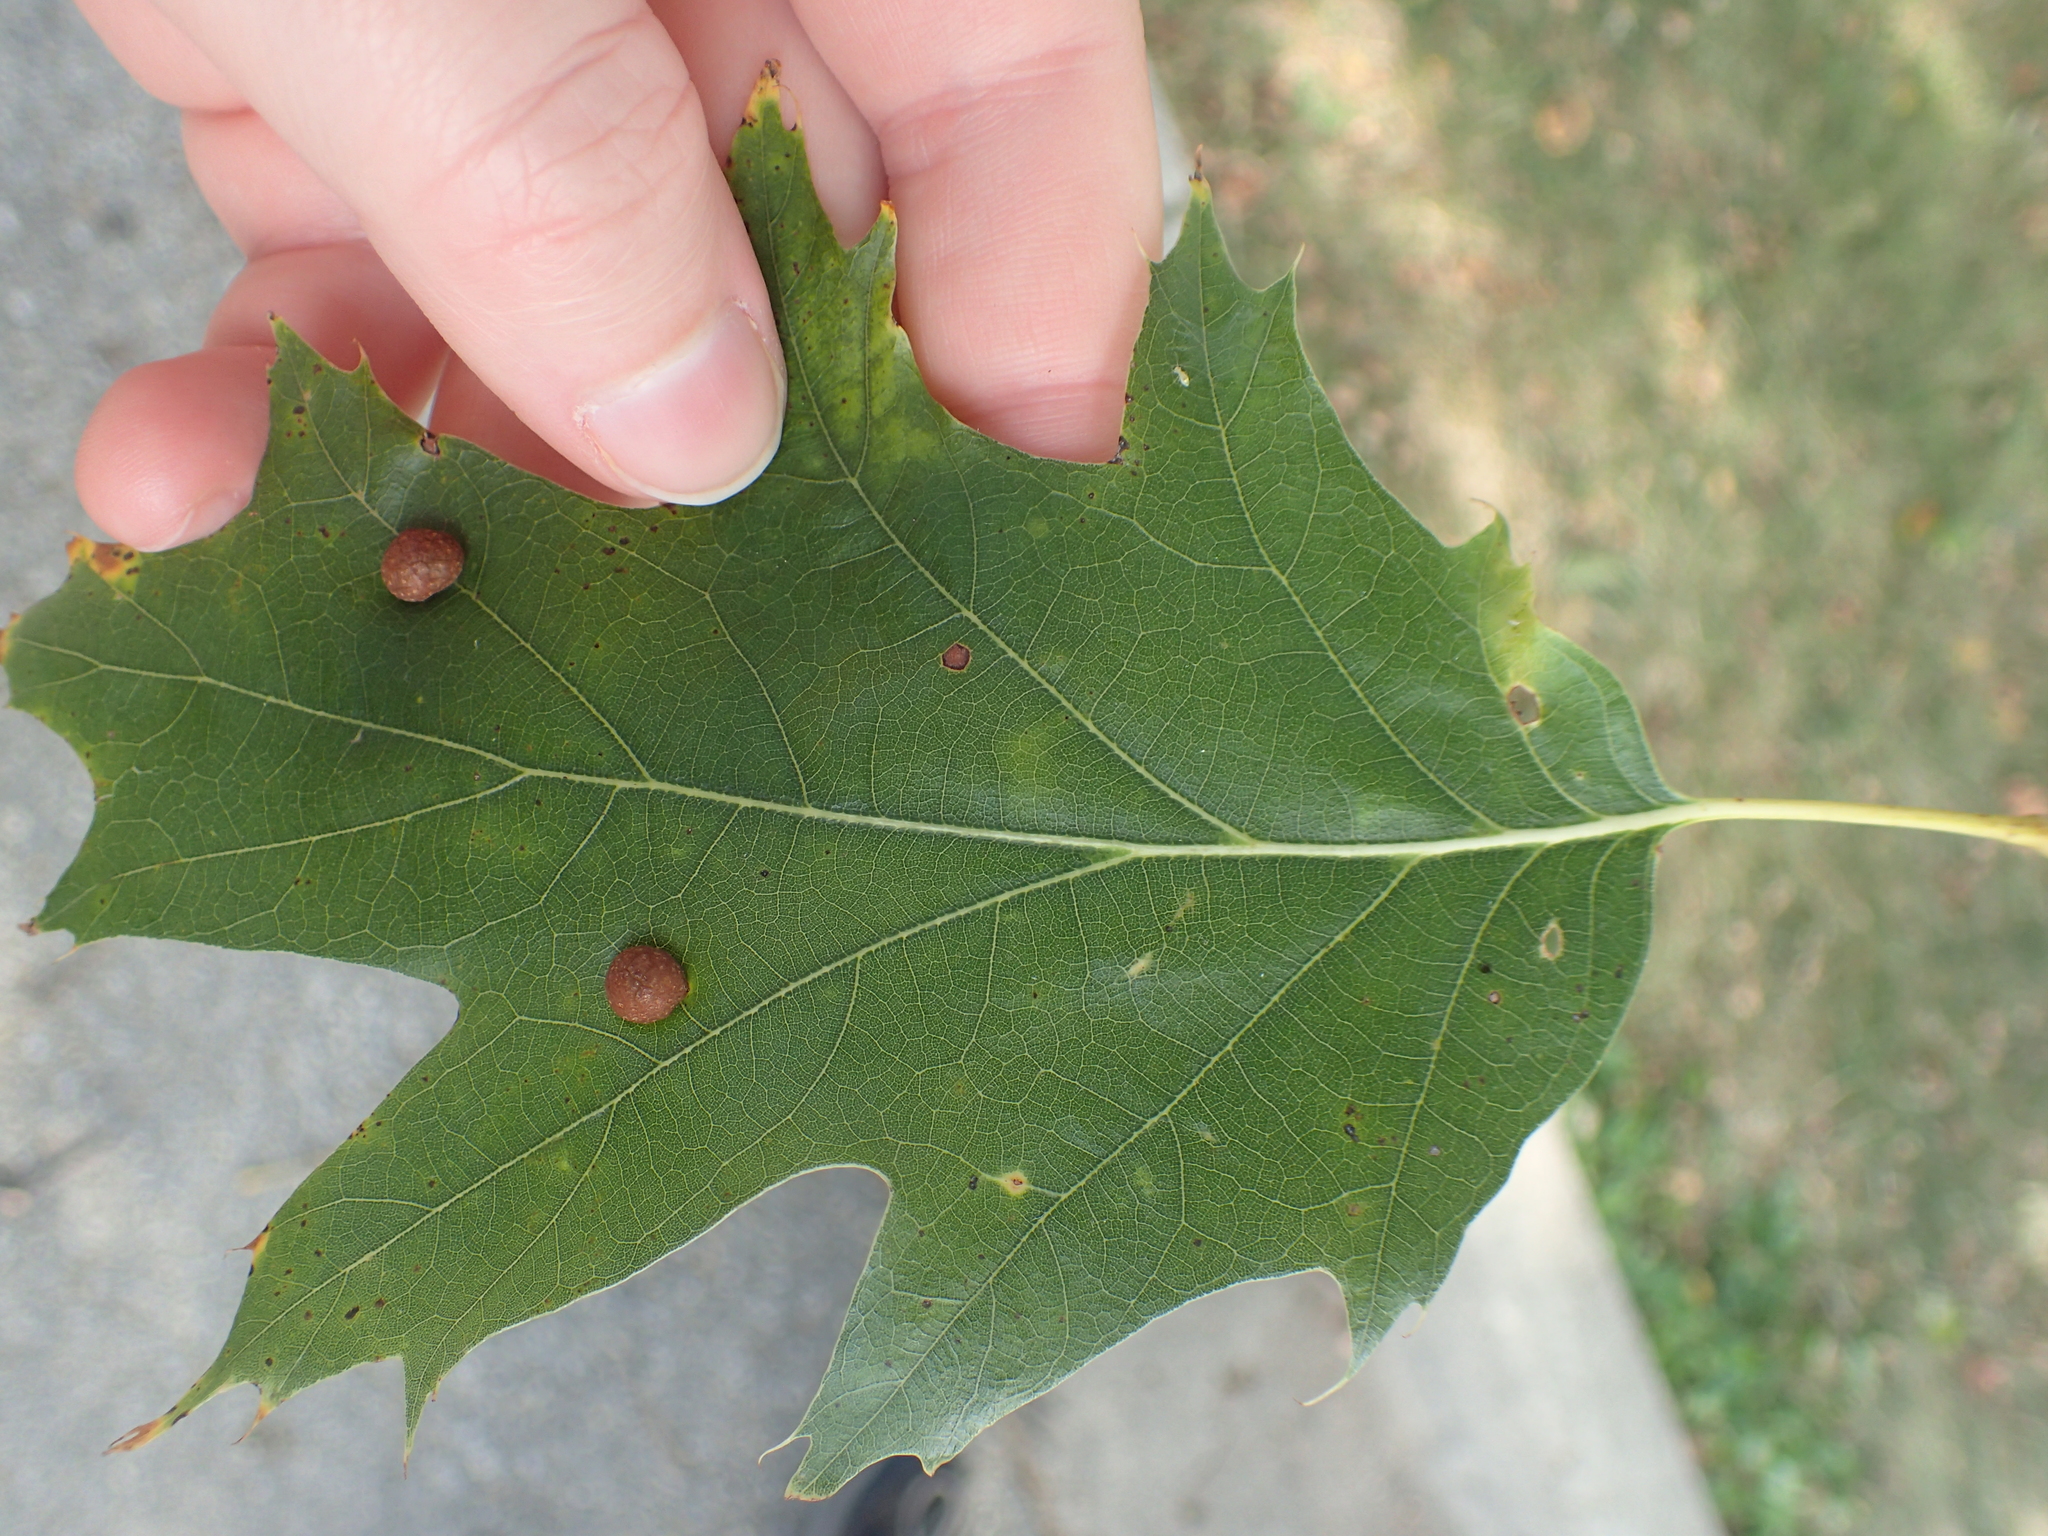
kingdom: Animalia
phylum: Arthropoda
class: Insecta
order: Diptera
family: Cecidomyiidae
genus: Polystepha
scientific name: Polystepha pilulae
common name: Oak leaf gall midge
